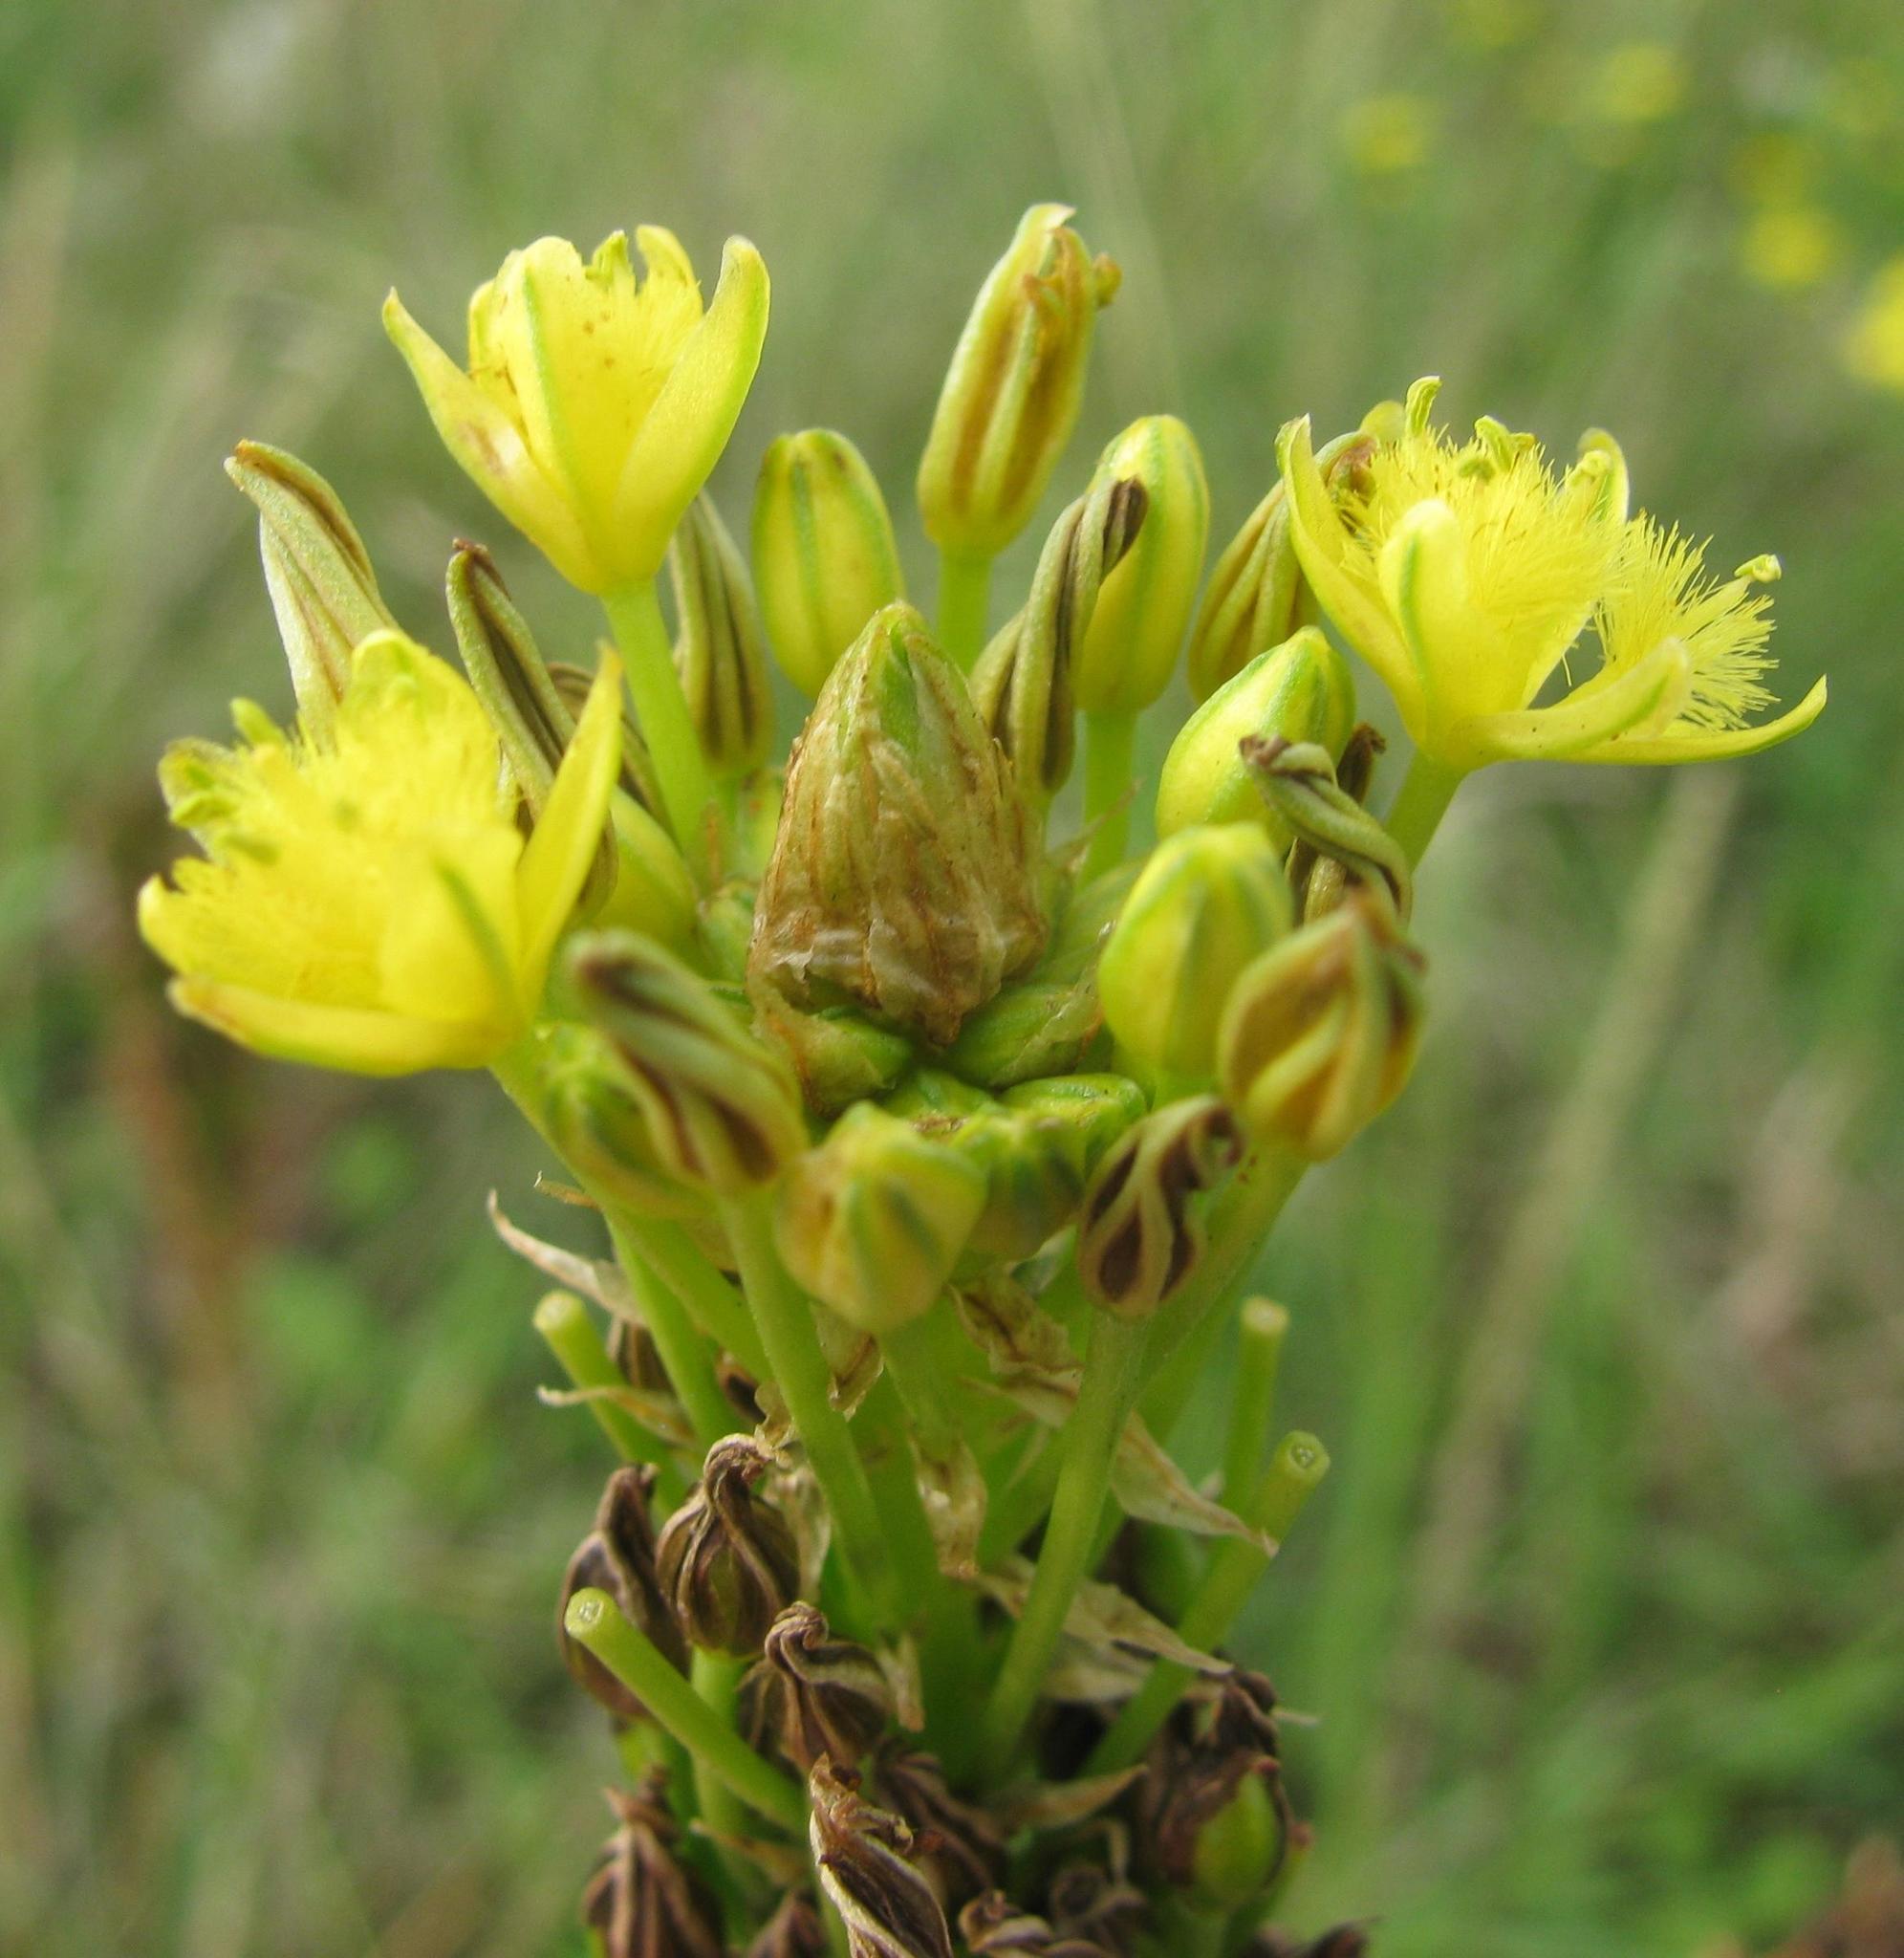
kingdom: Plantae
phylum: Tracheophyta
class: Liliopsida
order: Asparagales
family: Asphodelaceae
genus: Bulbine
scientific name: Bulbine narcissifolia
